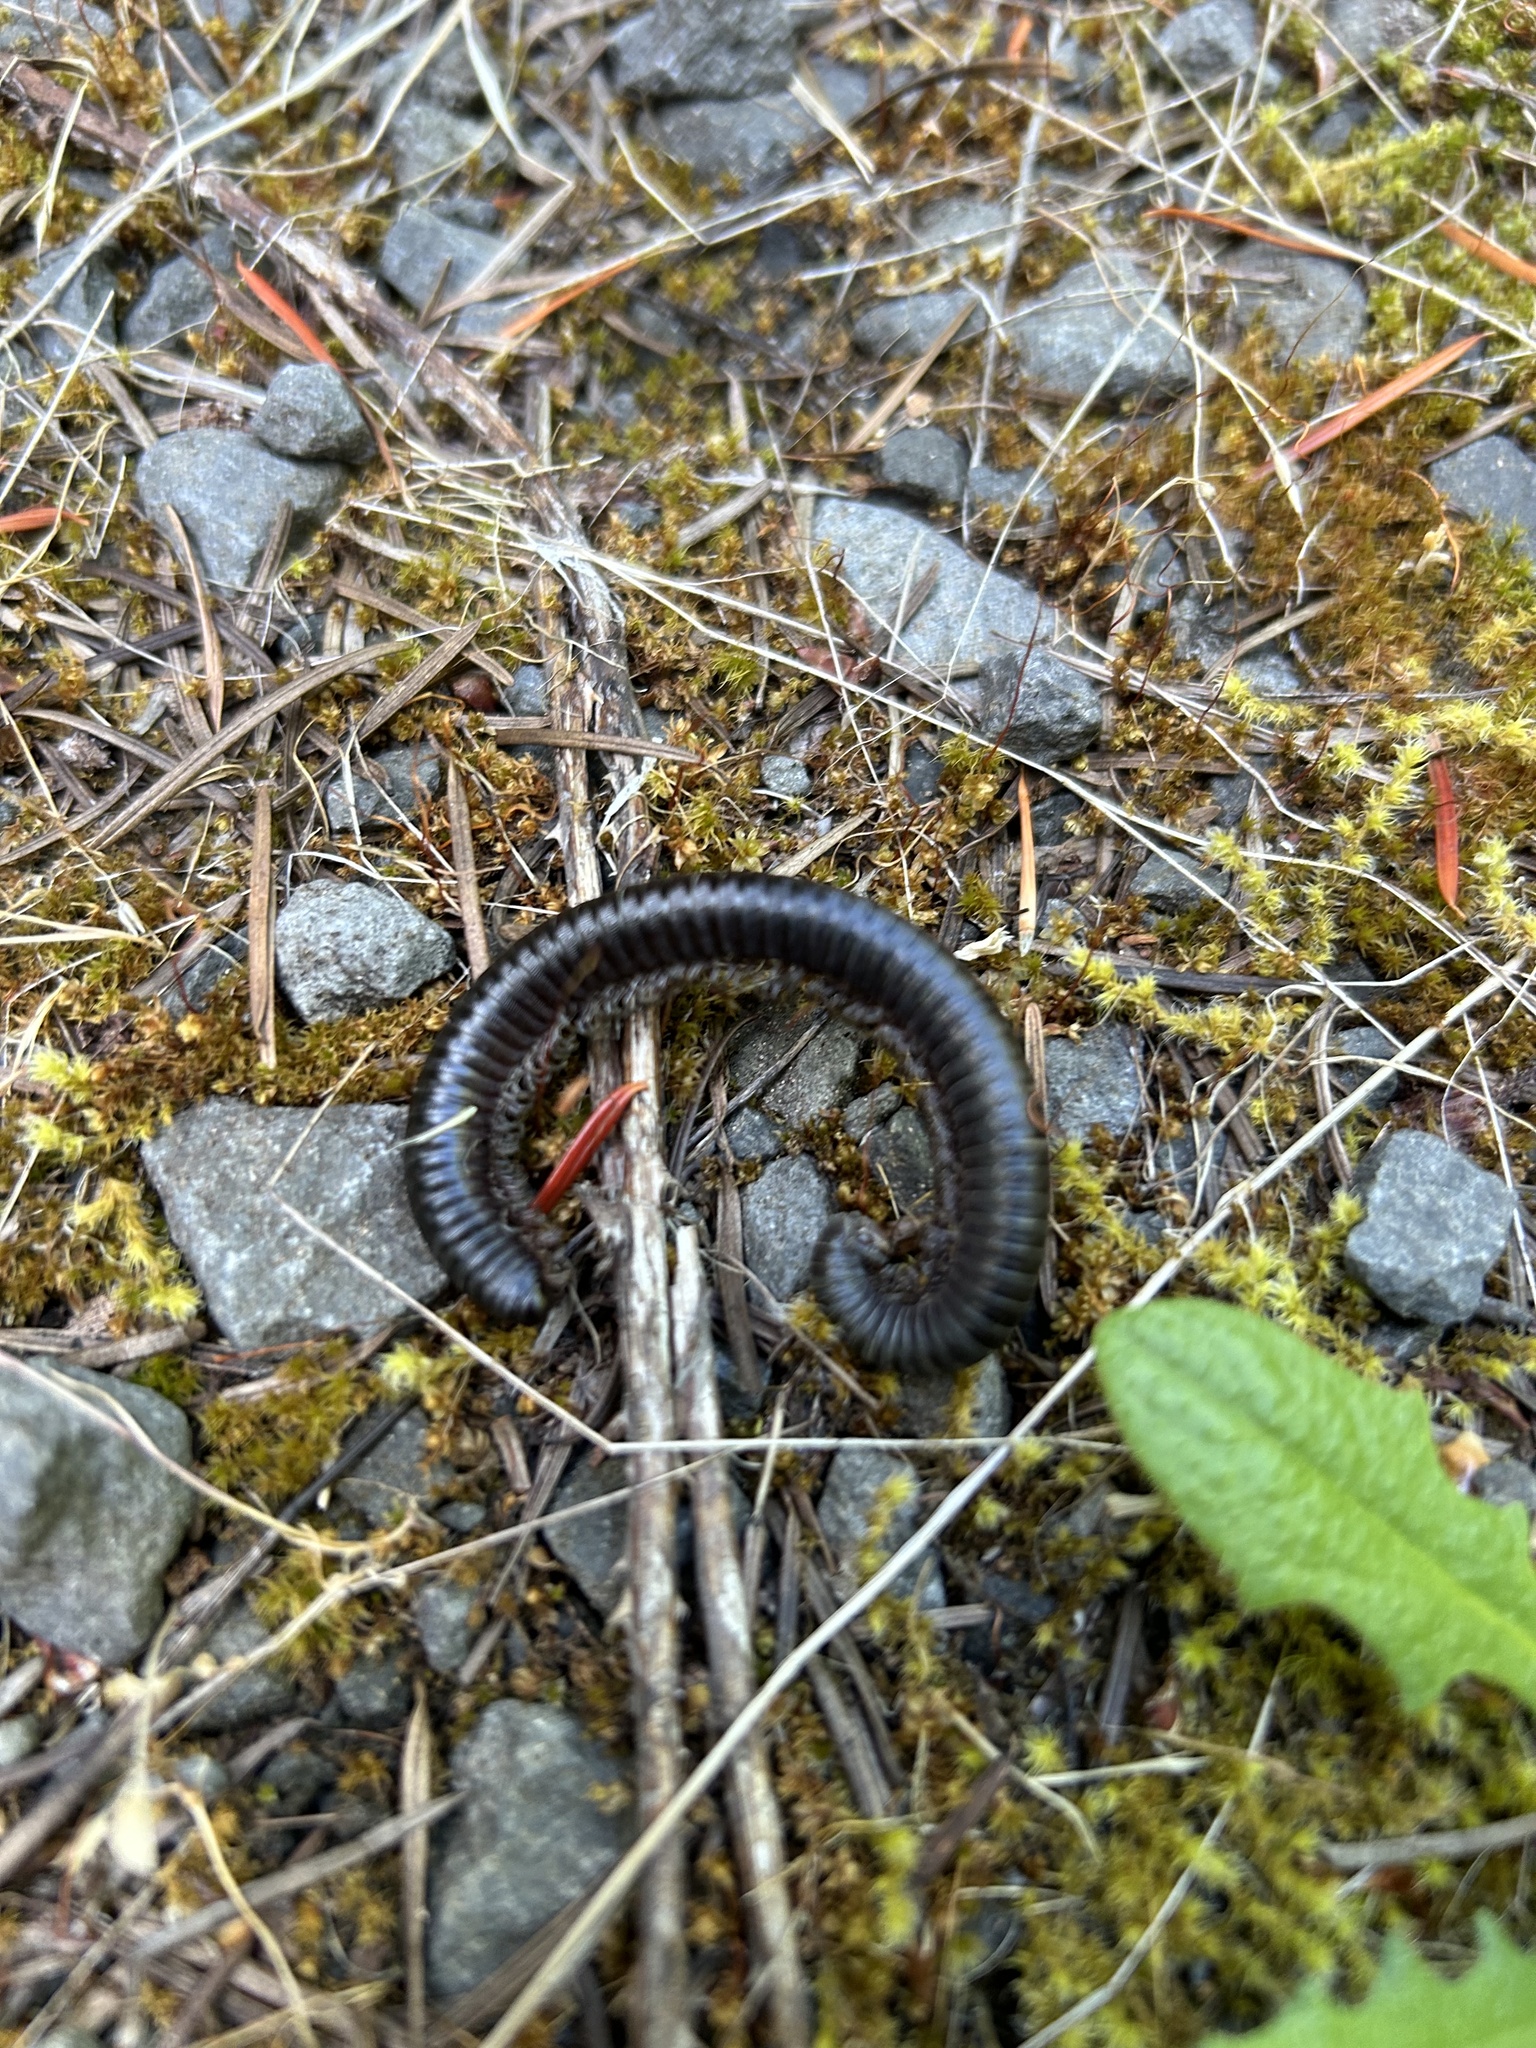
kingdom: Animalia
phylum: Arthropoda
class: Diplopoda
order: Spirobolida
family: Spirobolidae
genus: Tylobolus
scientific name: Tylobolus uncigerus
